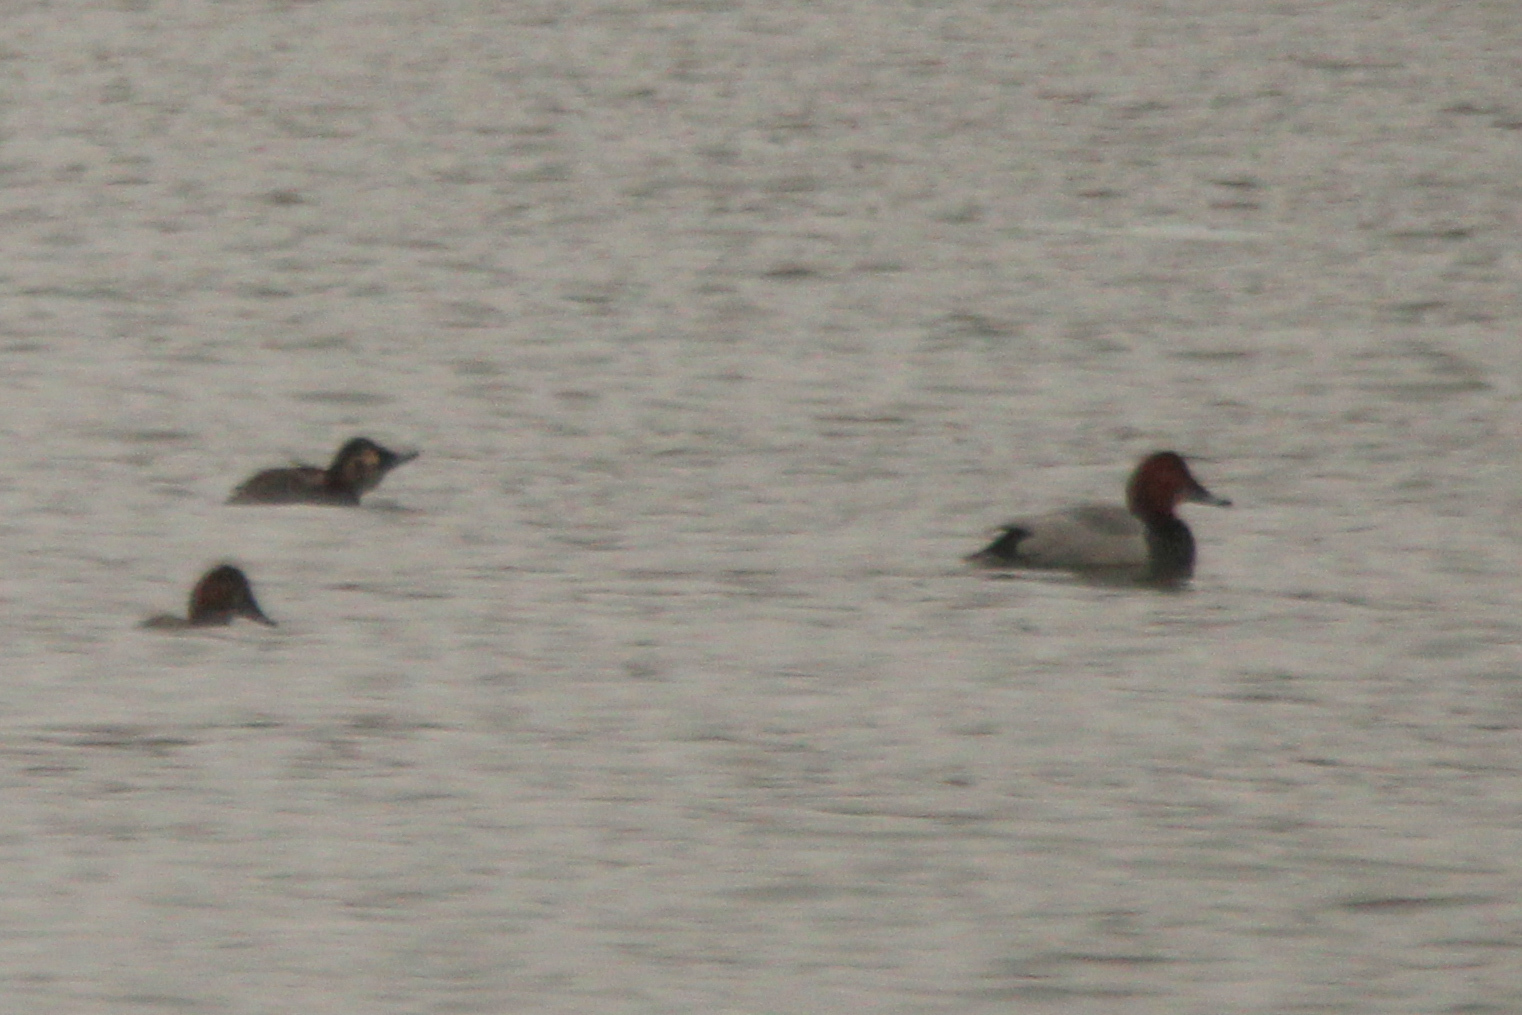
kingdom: Animalia
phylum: Chordata
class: Aves
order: Anseriformes
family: Anatidae
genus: Aythya
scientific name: Aythya ferina
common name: Common pochard
